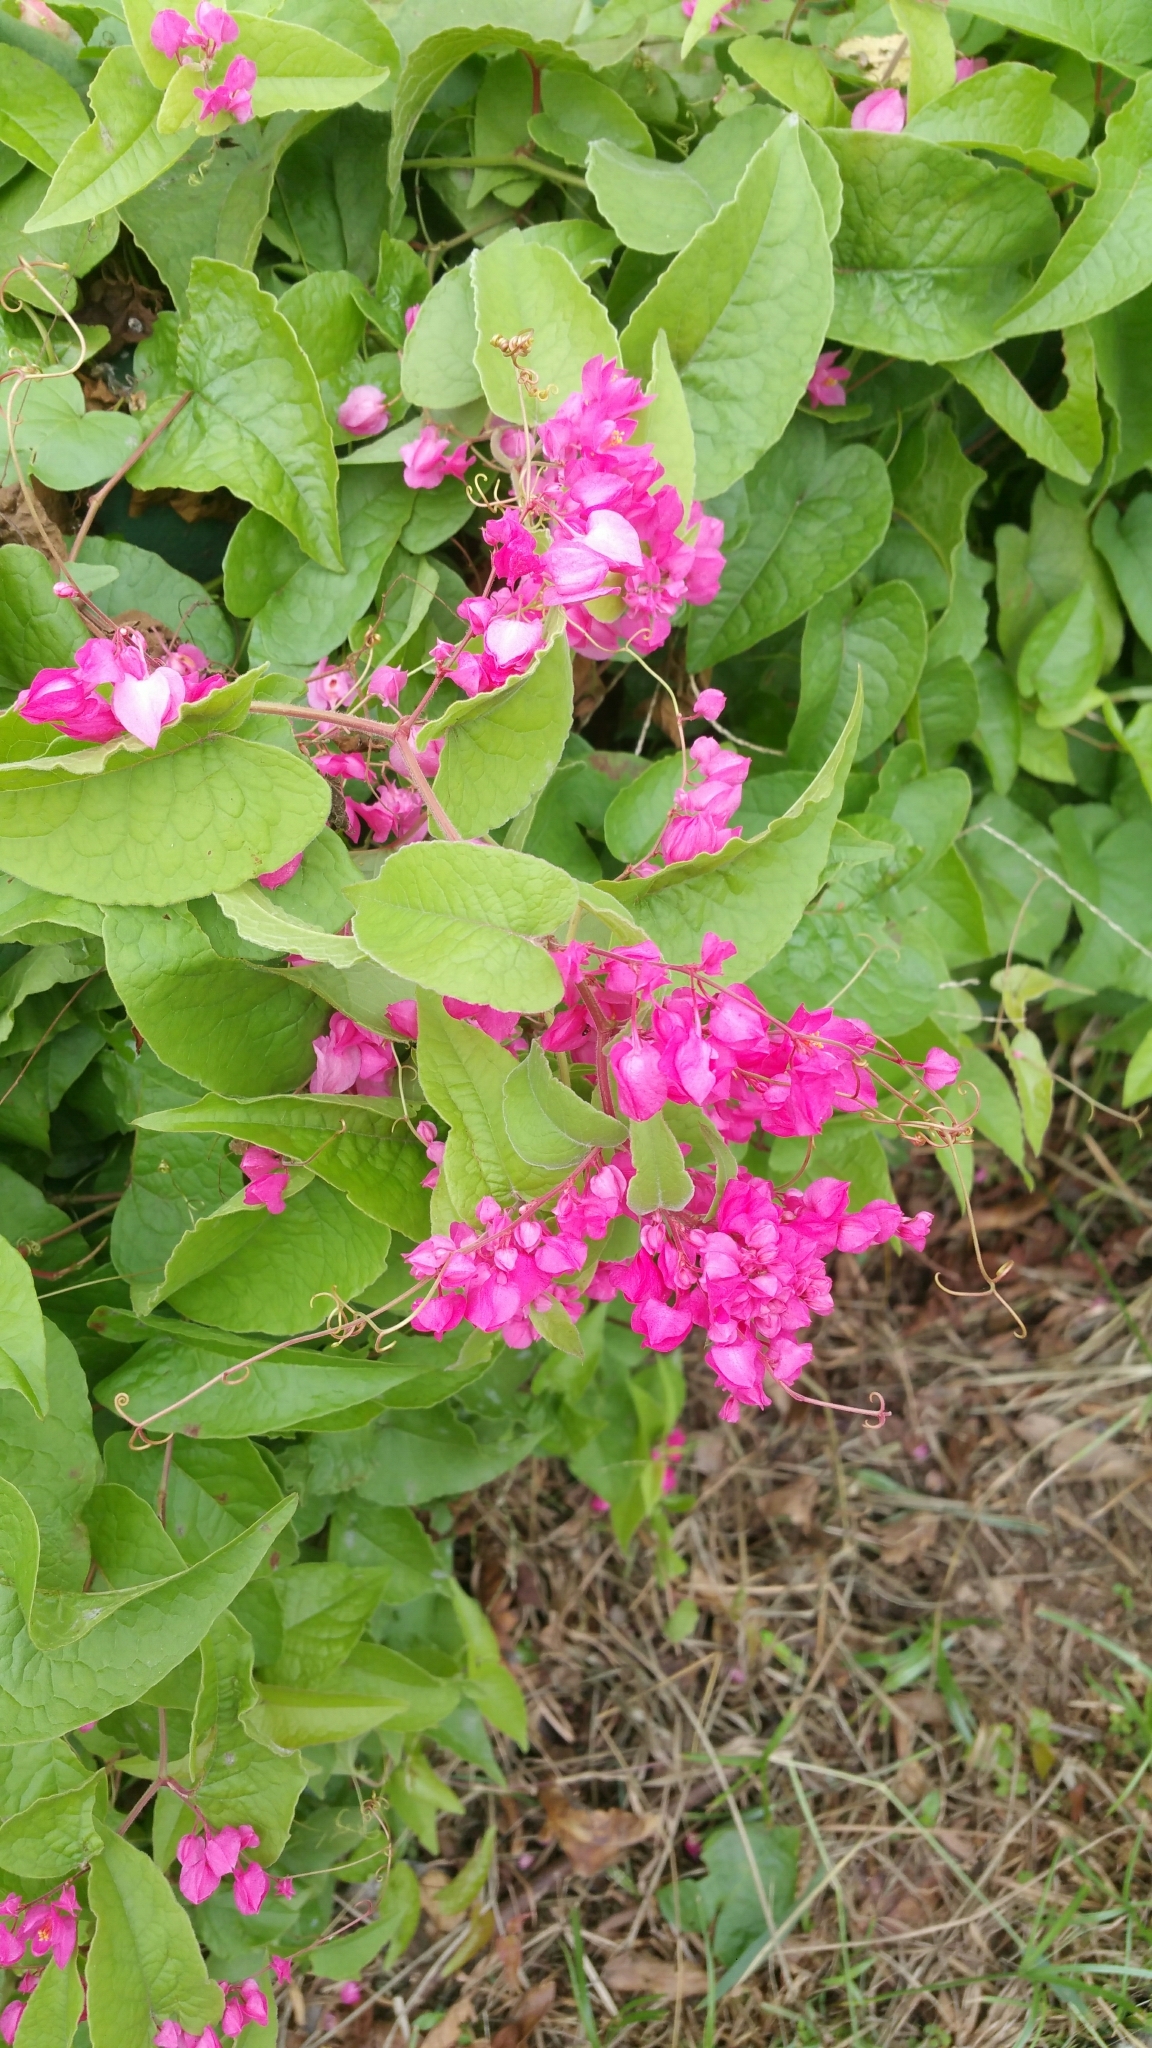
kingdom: Plantae
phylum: Tracheophyta
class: Magnoliopsida
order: Caryophyllales
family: Polygonaceae
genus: Antigonon
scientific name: Antigonon leptopus
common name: Coral vine
